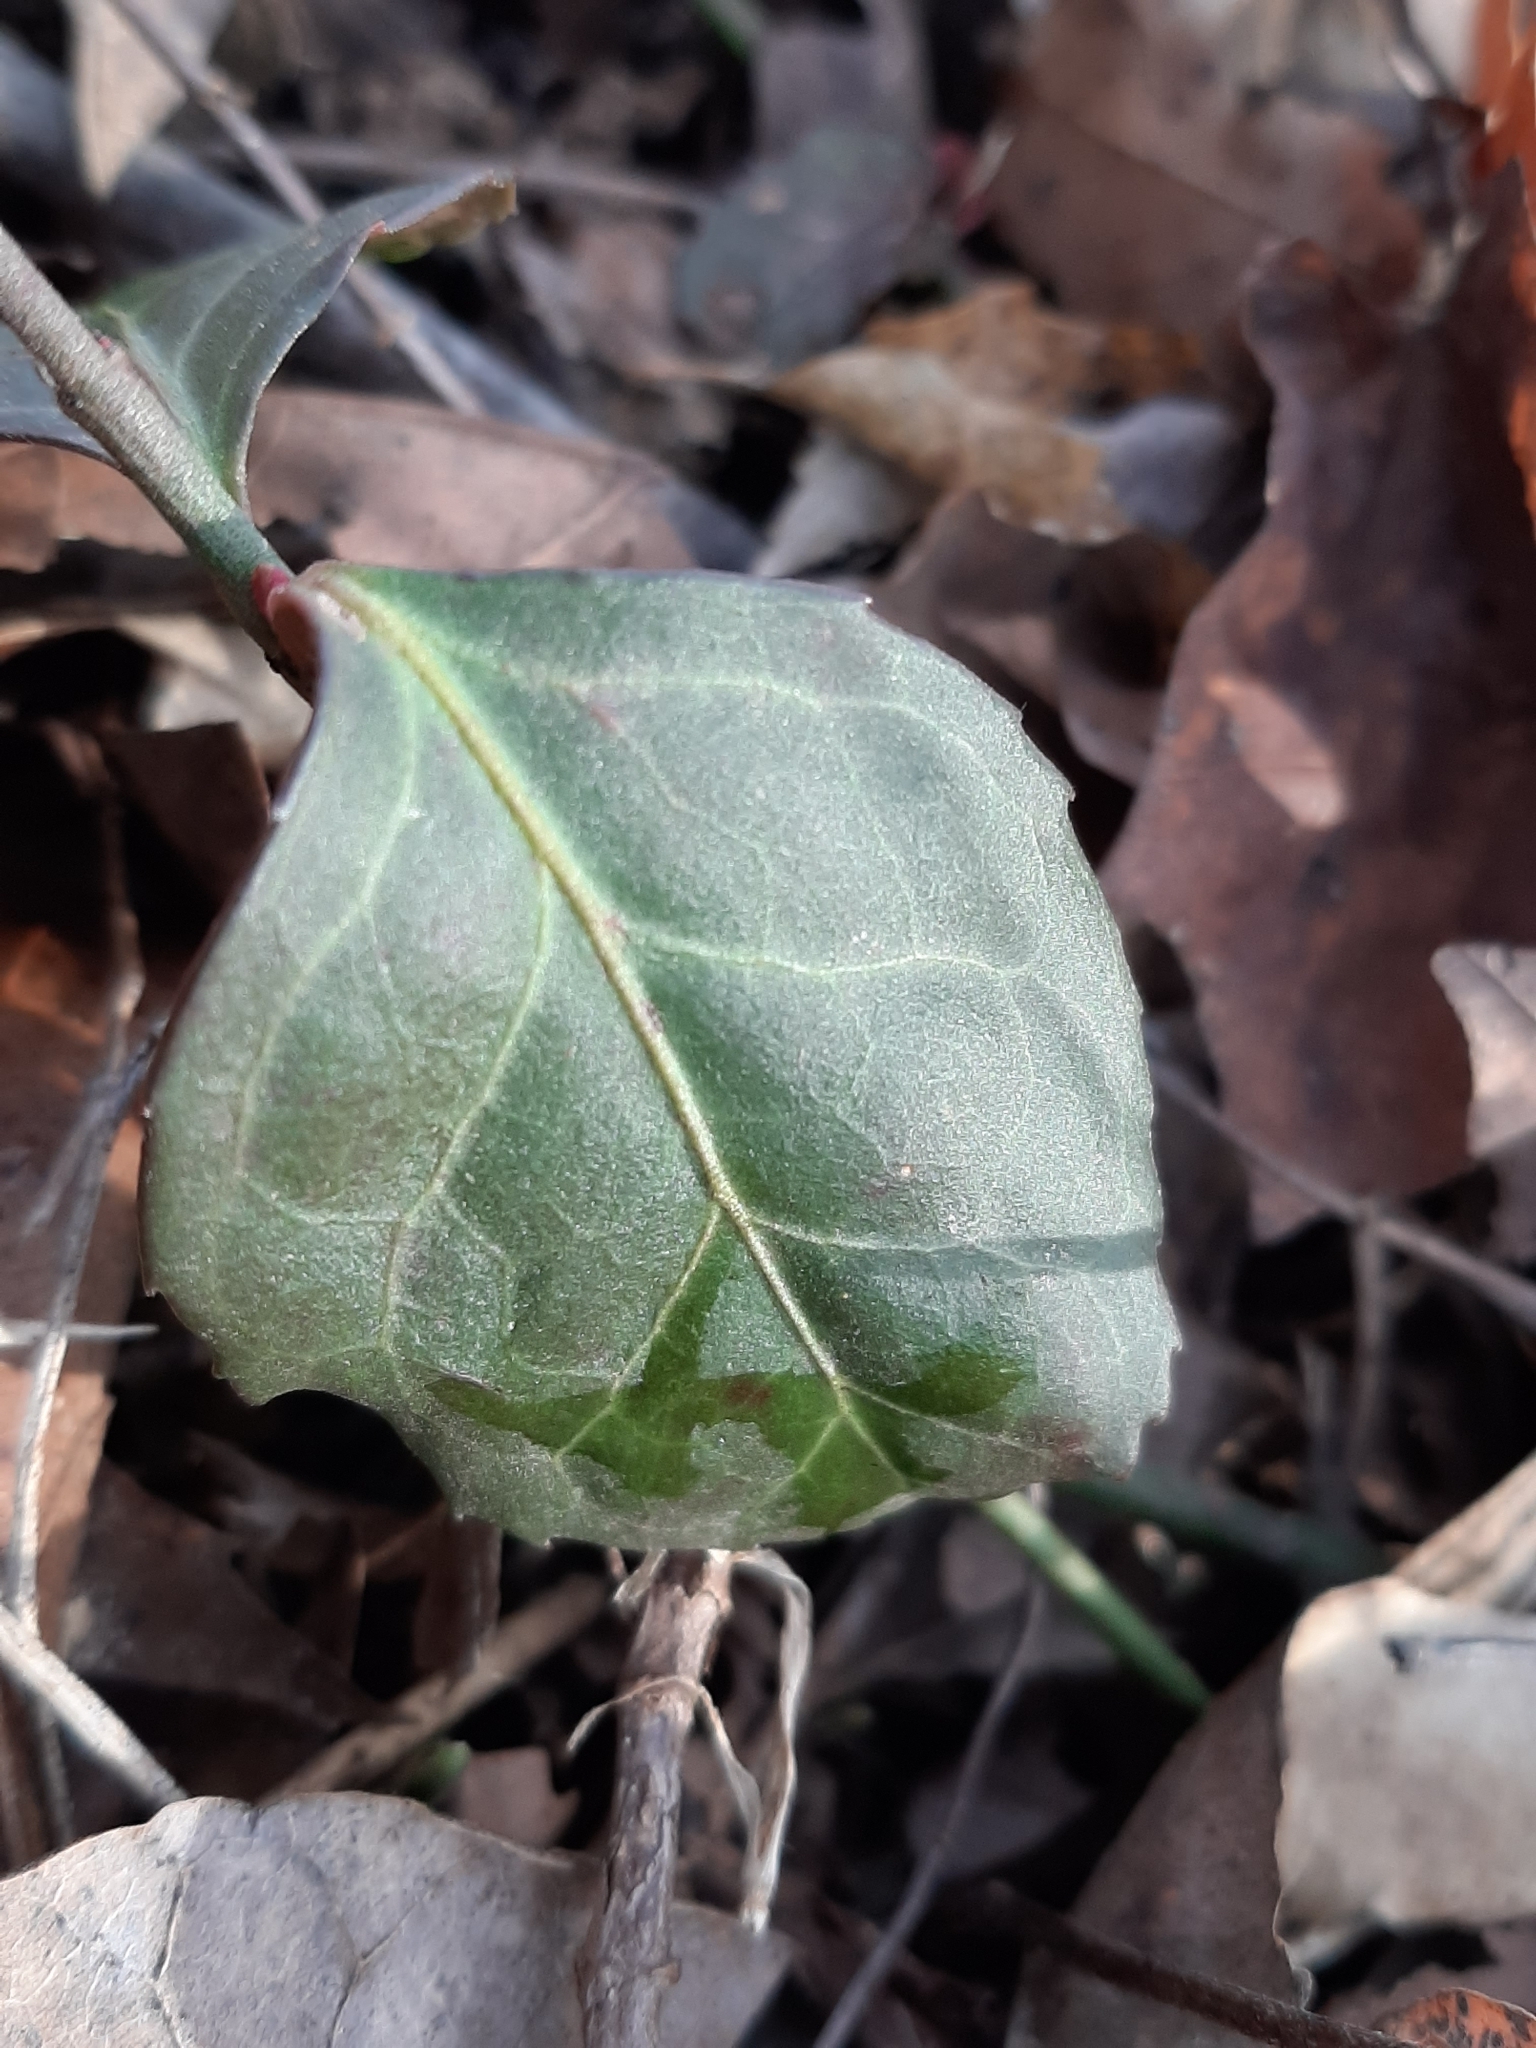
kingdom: Plantae
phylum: Tracheophyta
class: Magnoliopsida
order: Celastrales
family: Celastraceae
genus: Euonymus
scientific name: Euonymus fortunei
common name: Climbing euonymus
